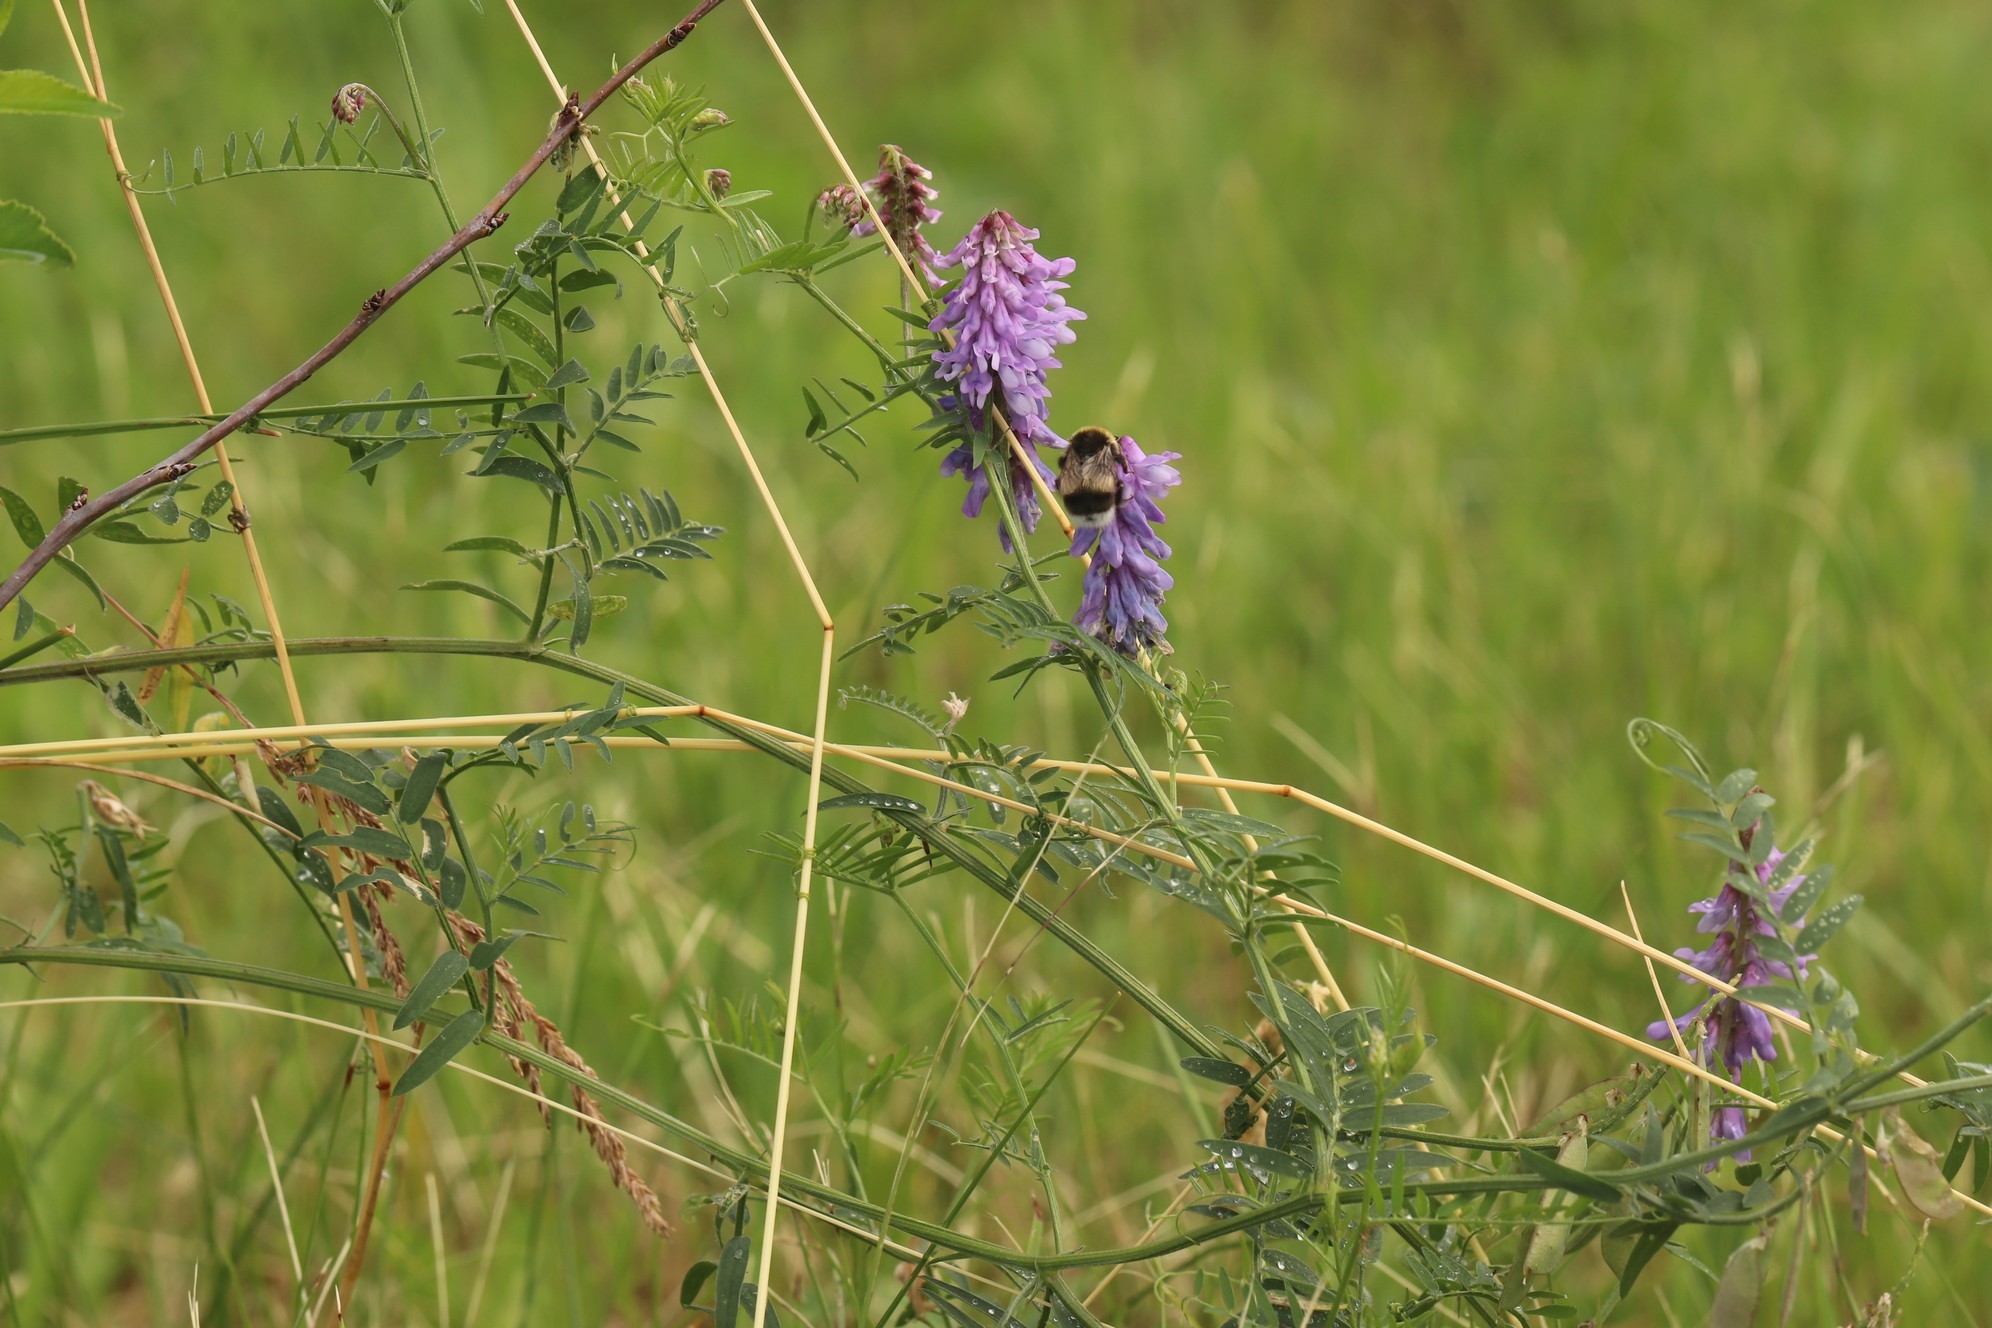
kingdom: Plantae
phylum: Tracheophyta
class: Magnoliopsida
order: Fabales
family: Fabaceae
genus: Vicia
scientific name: Vicia cracca
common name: Bird vetch
